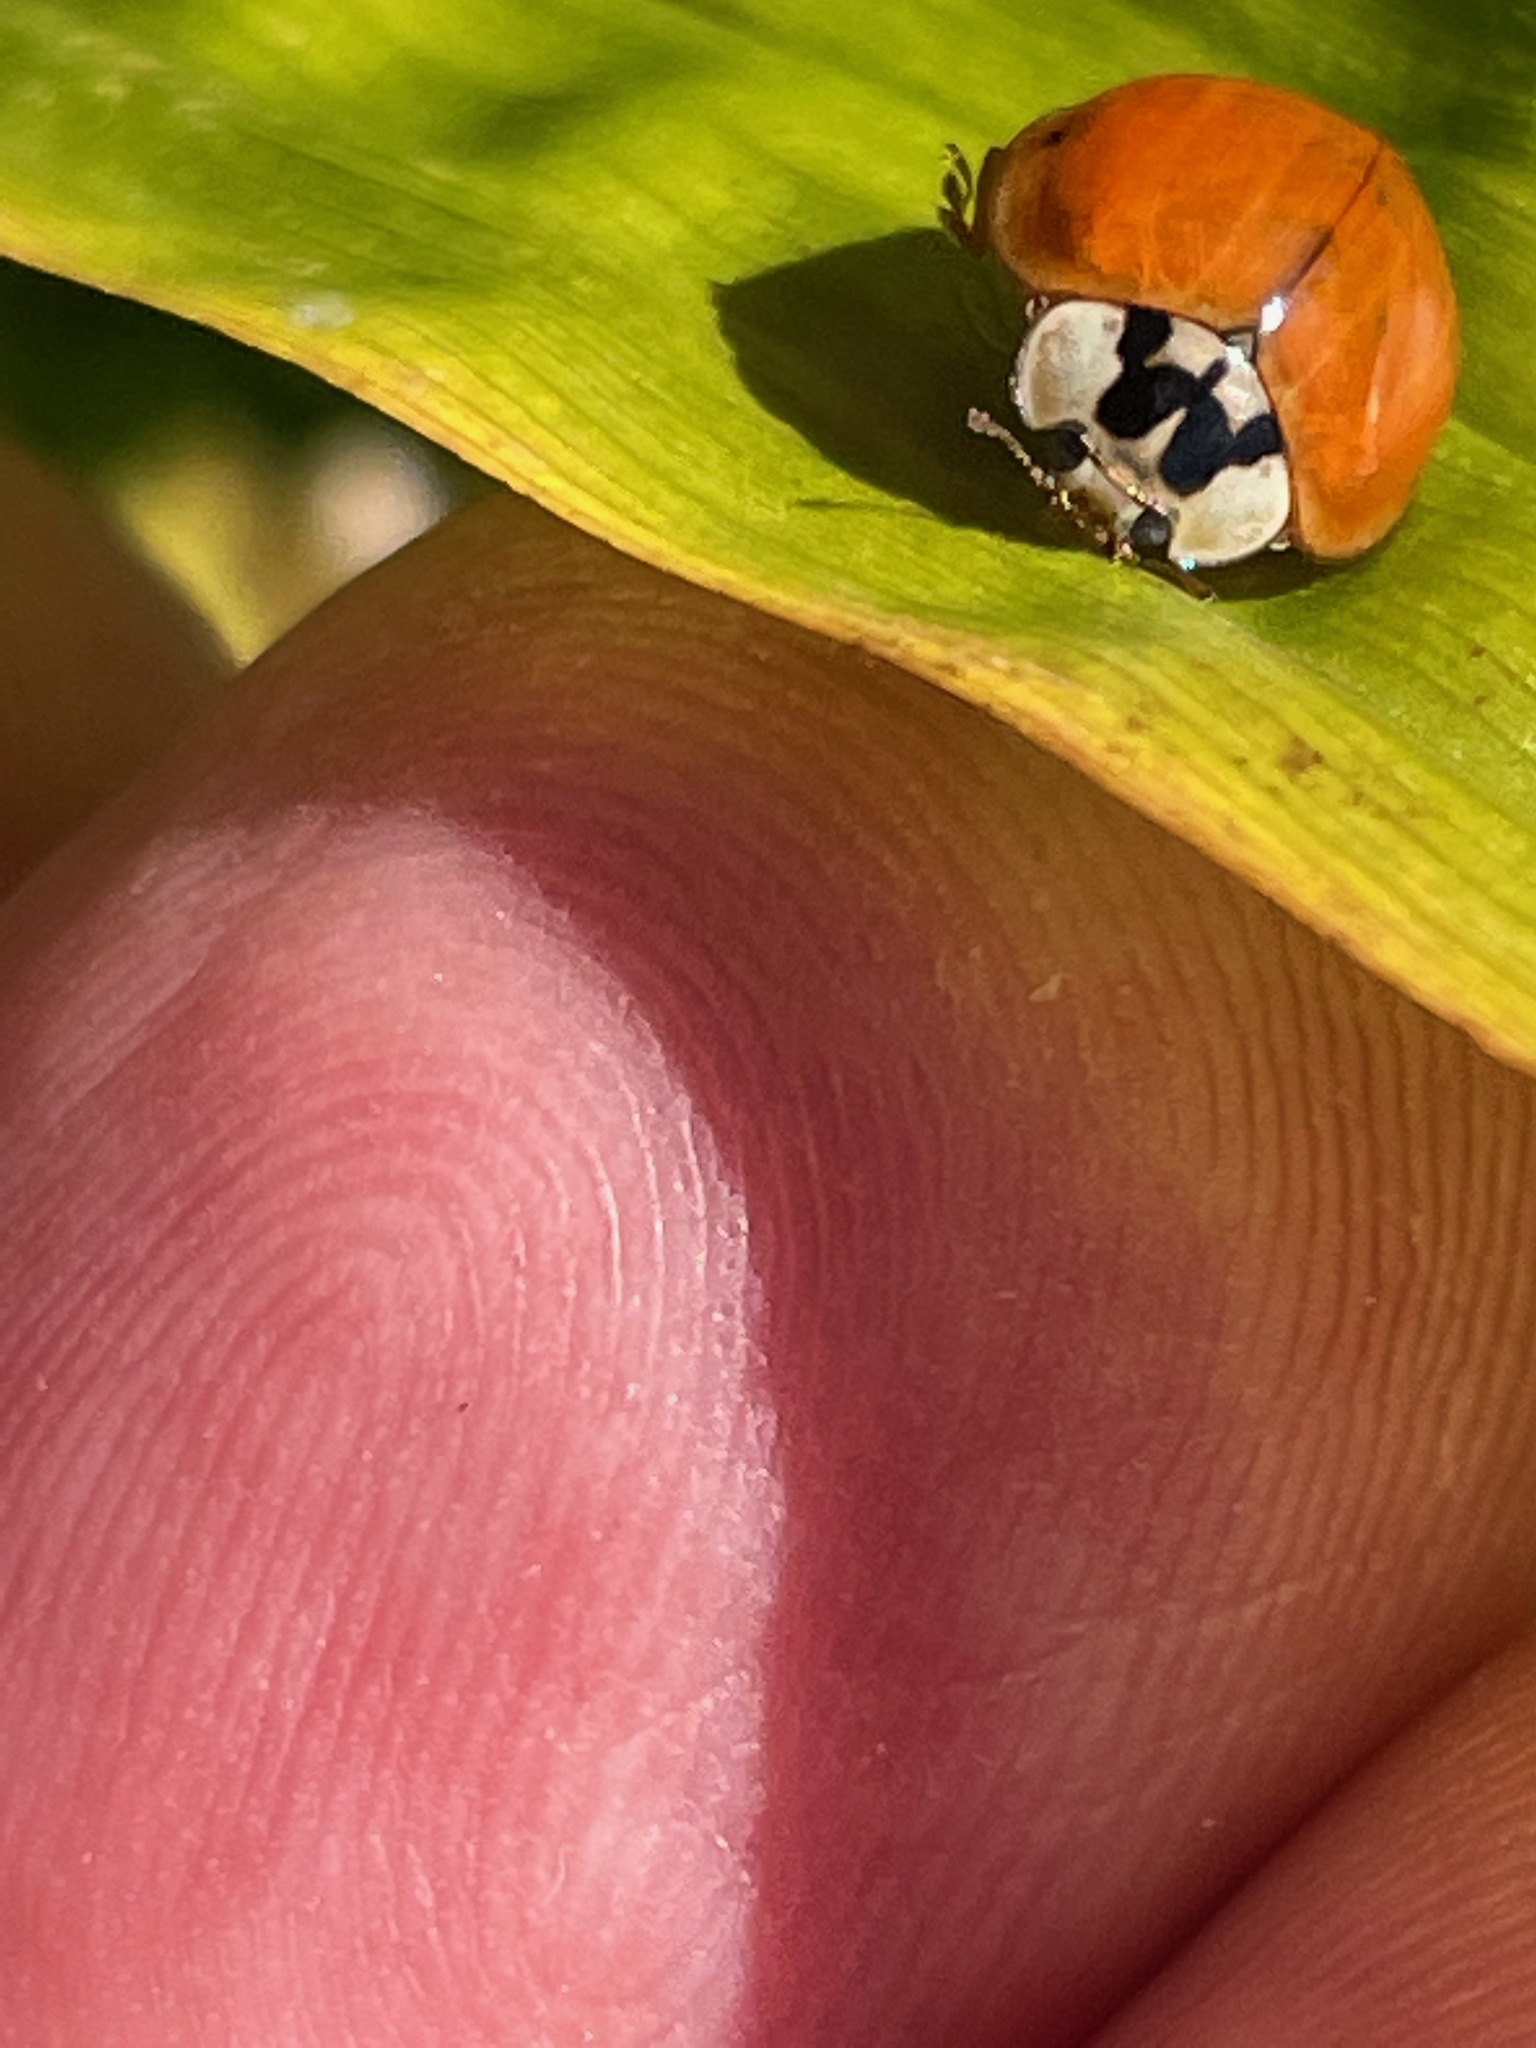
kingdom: Animalia
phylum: Arthropoda
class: Insecta
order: Coleoptera
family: Coccinellidae
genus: Harmonia
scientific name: Harmonia axyridis
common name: Harlequin ladybird
